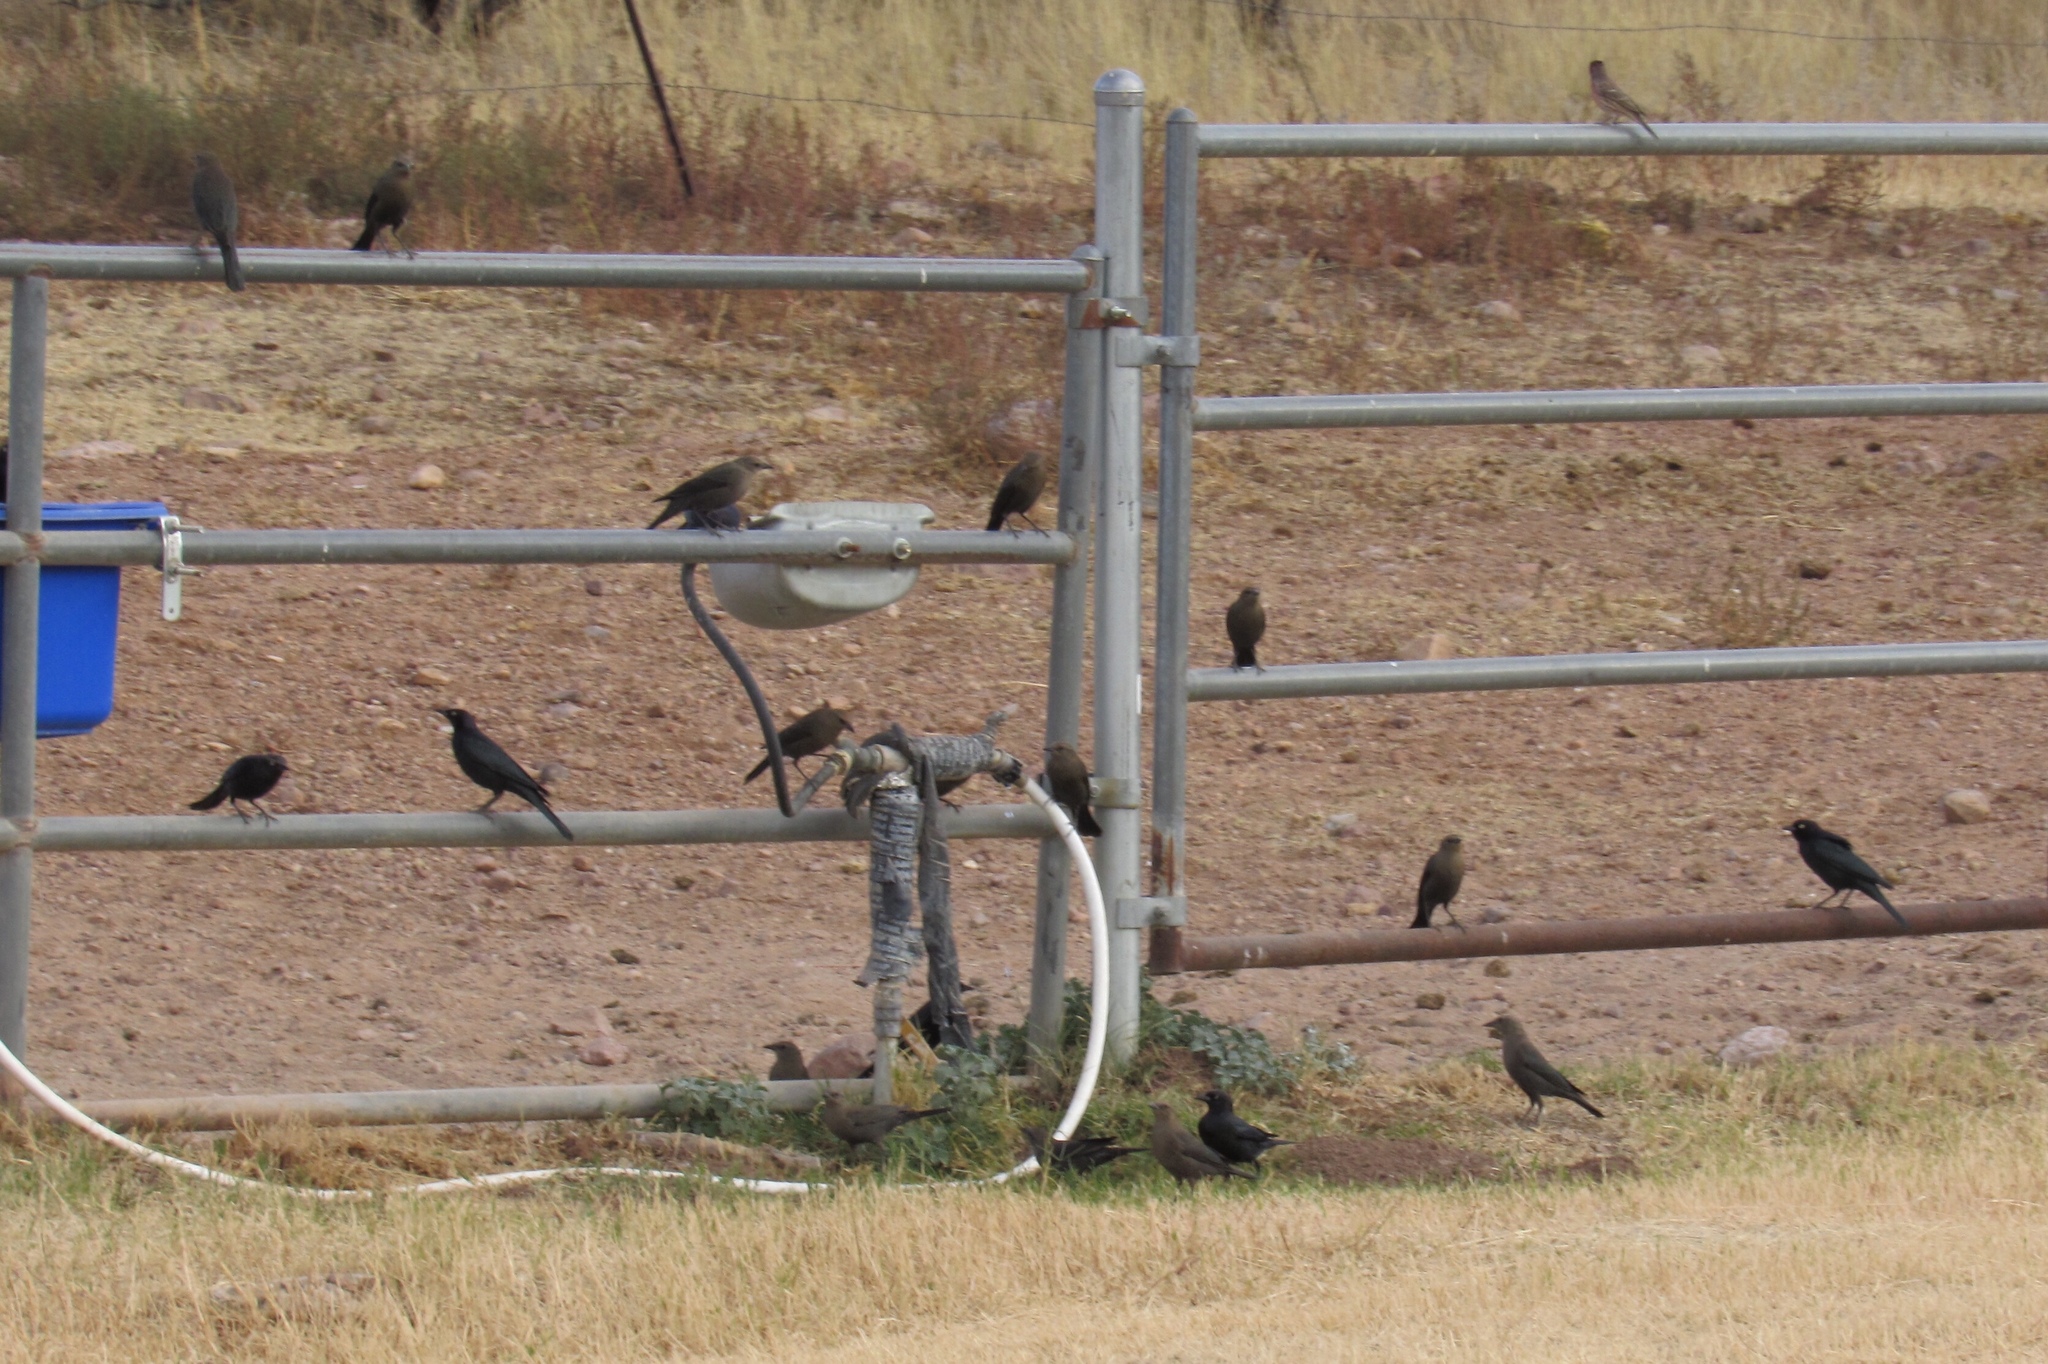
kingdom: Animalia
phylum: Chordata
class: Aves
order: Passeriformes
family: Icteridae
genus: Euphagus
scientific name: Euphagus cyanocephalus
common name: Brewer's blackbird
